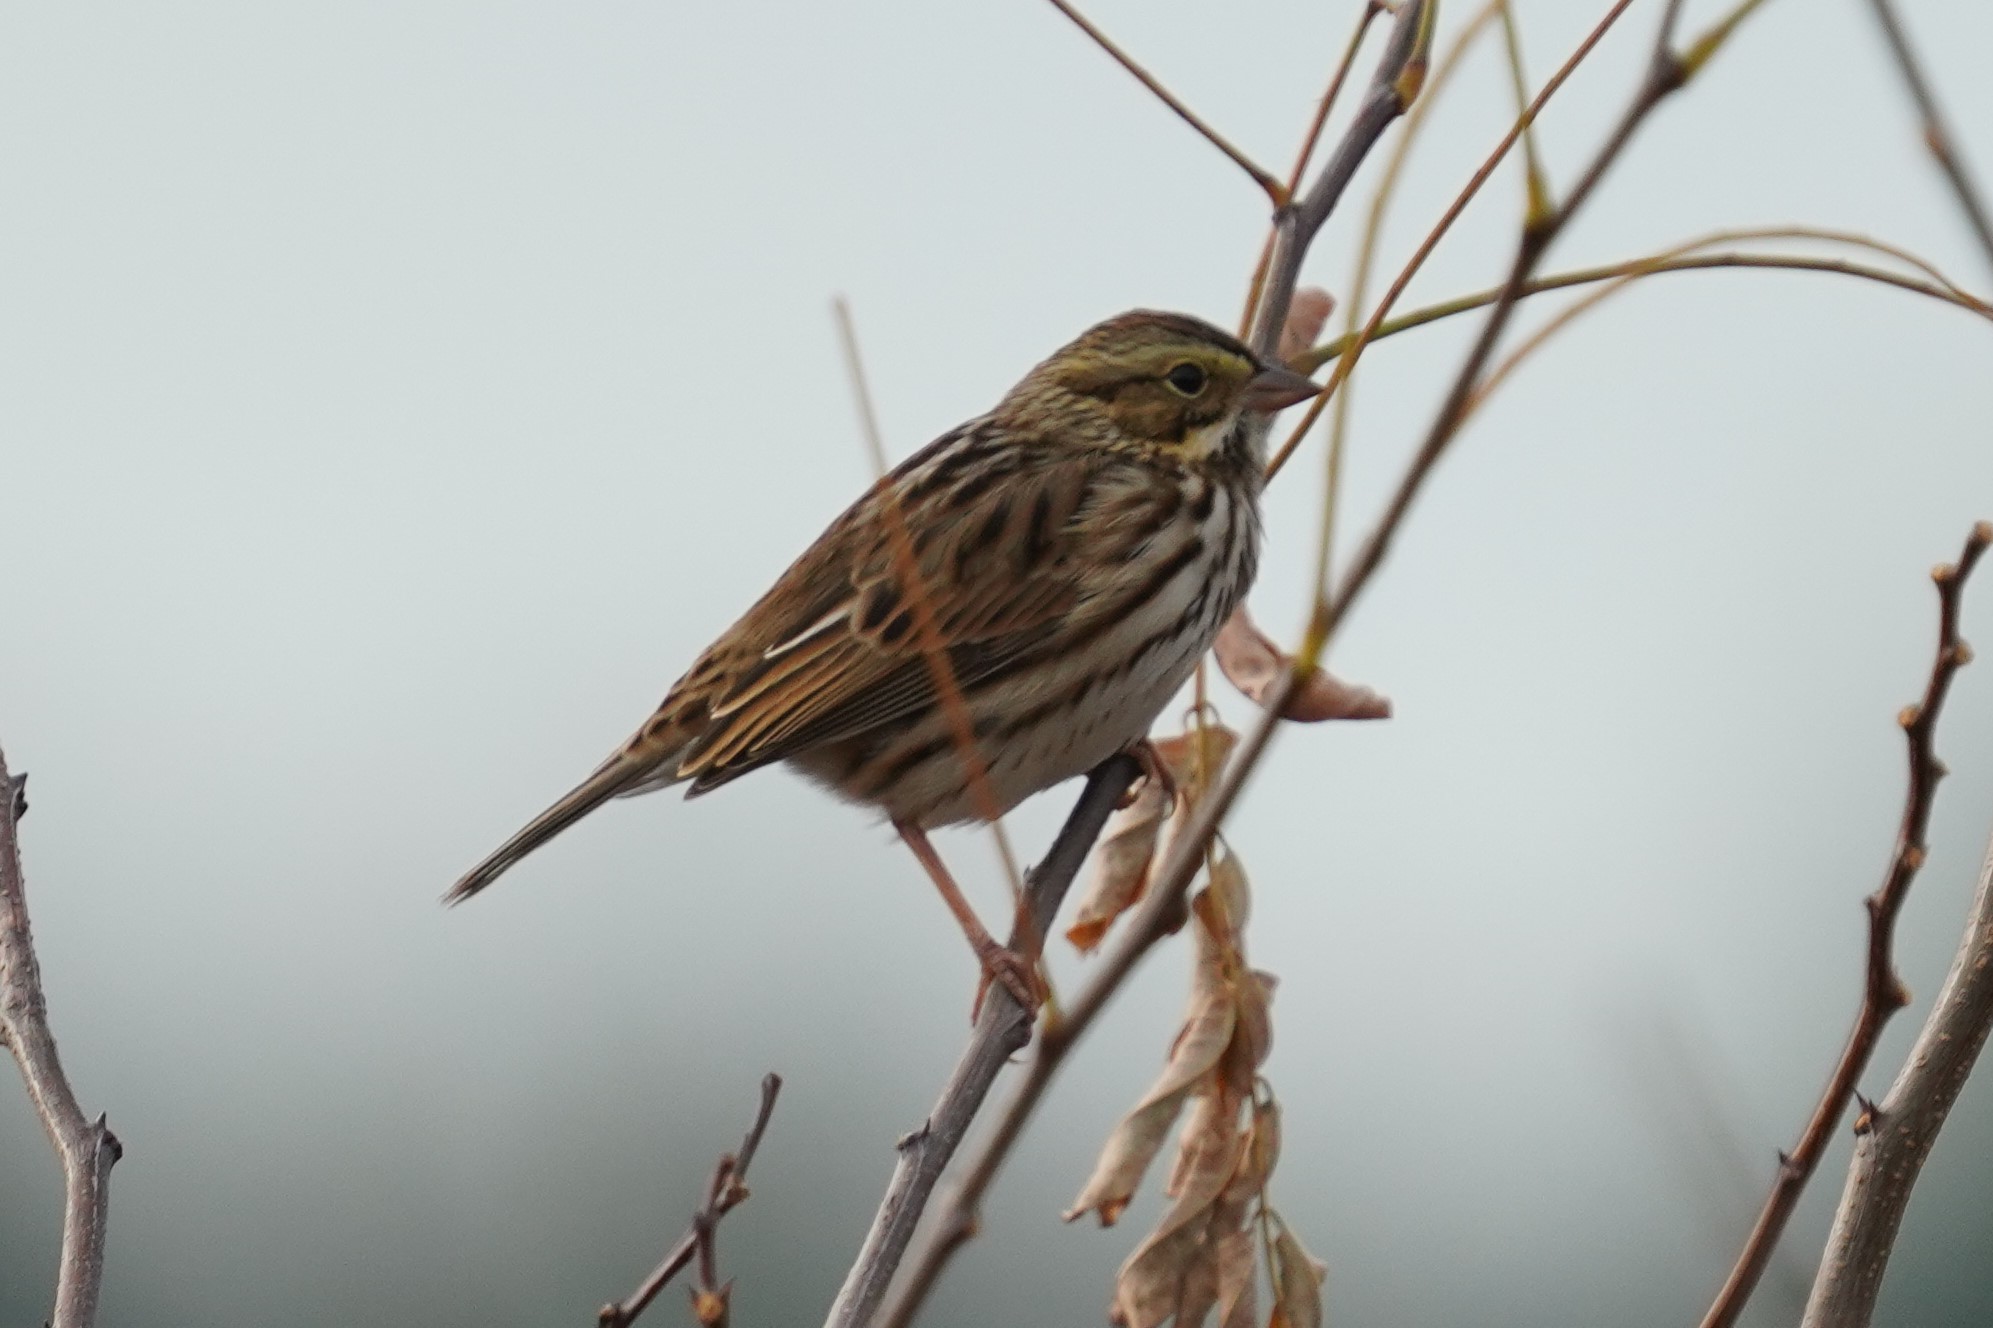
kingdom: Animalia
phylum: Chordata
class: Aves
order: Passeriformes
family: Passerellidae
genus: Passerculus
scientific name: Passerculus sandwichensis
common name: Savannah sparrow
